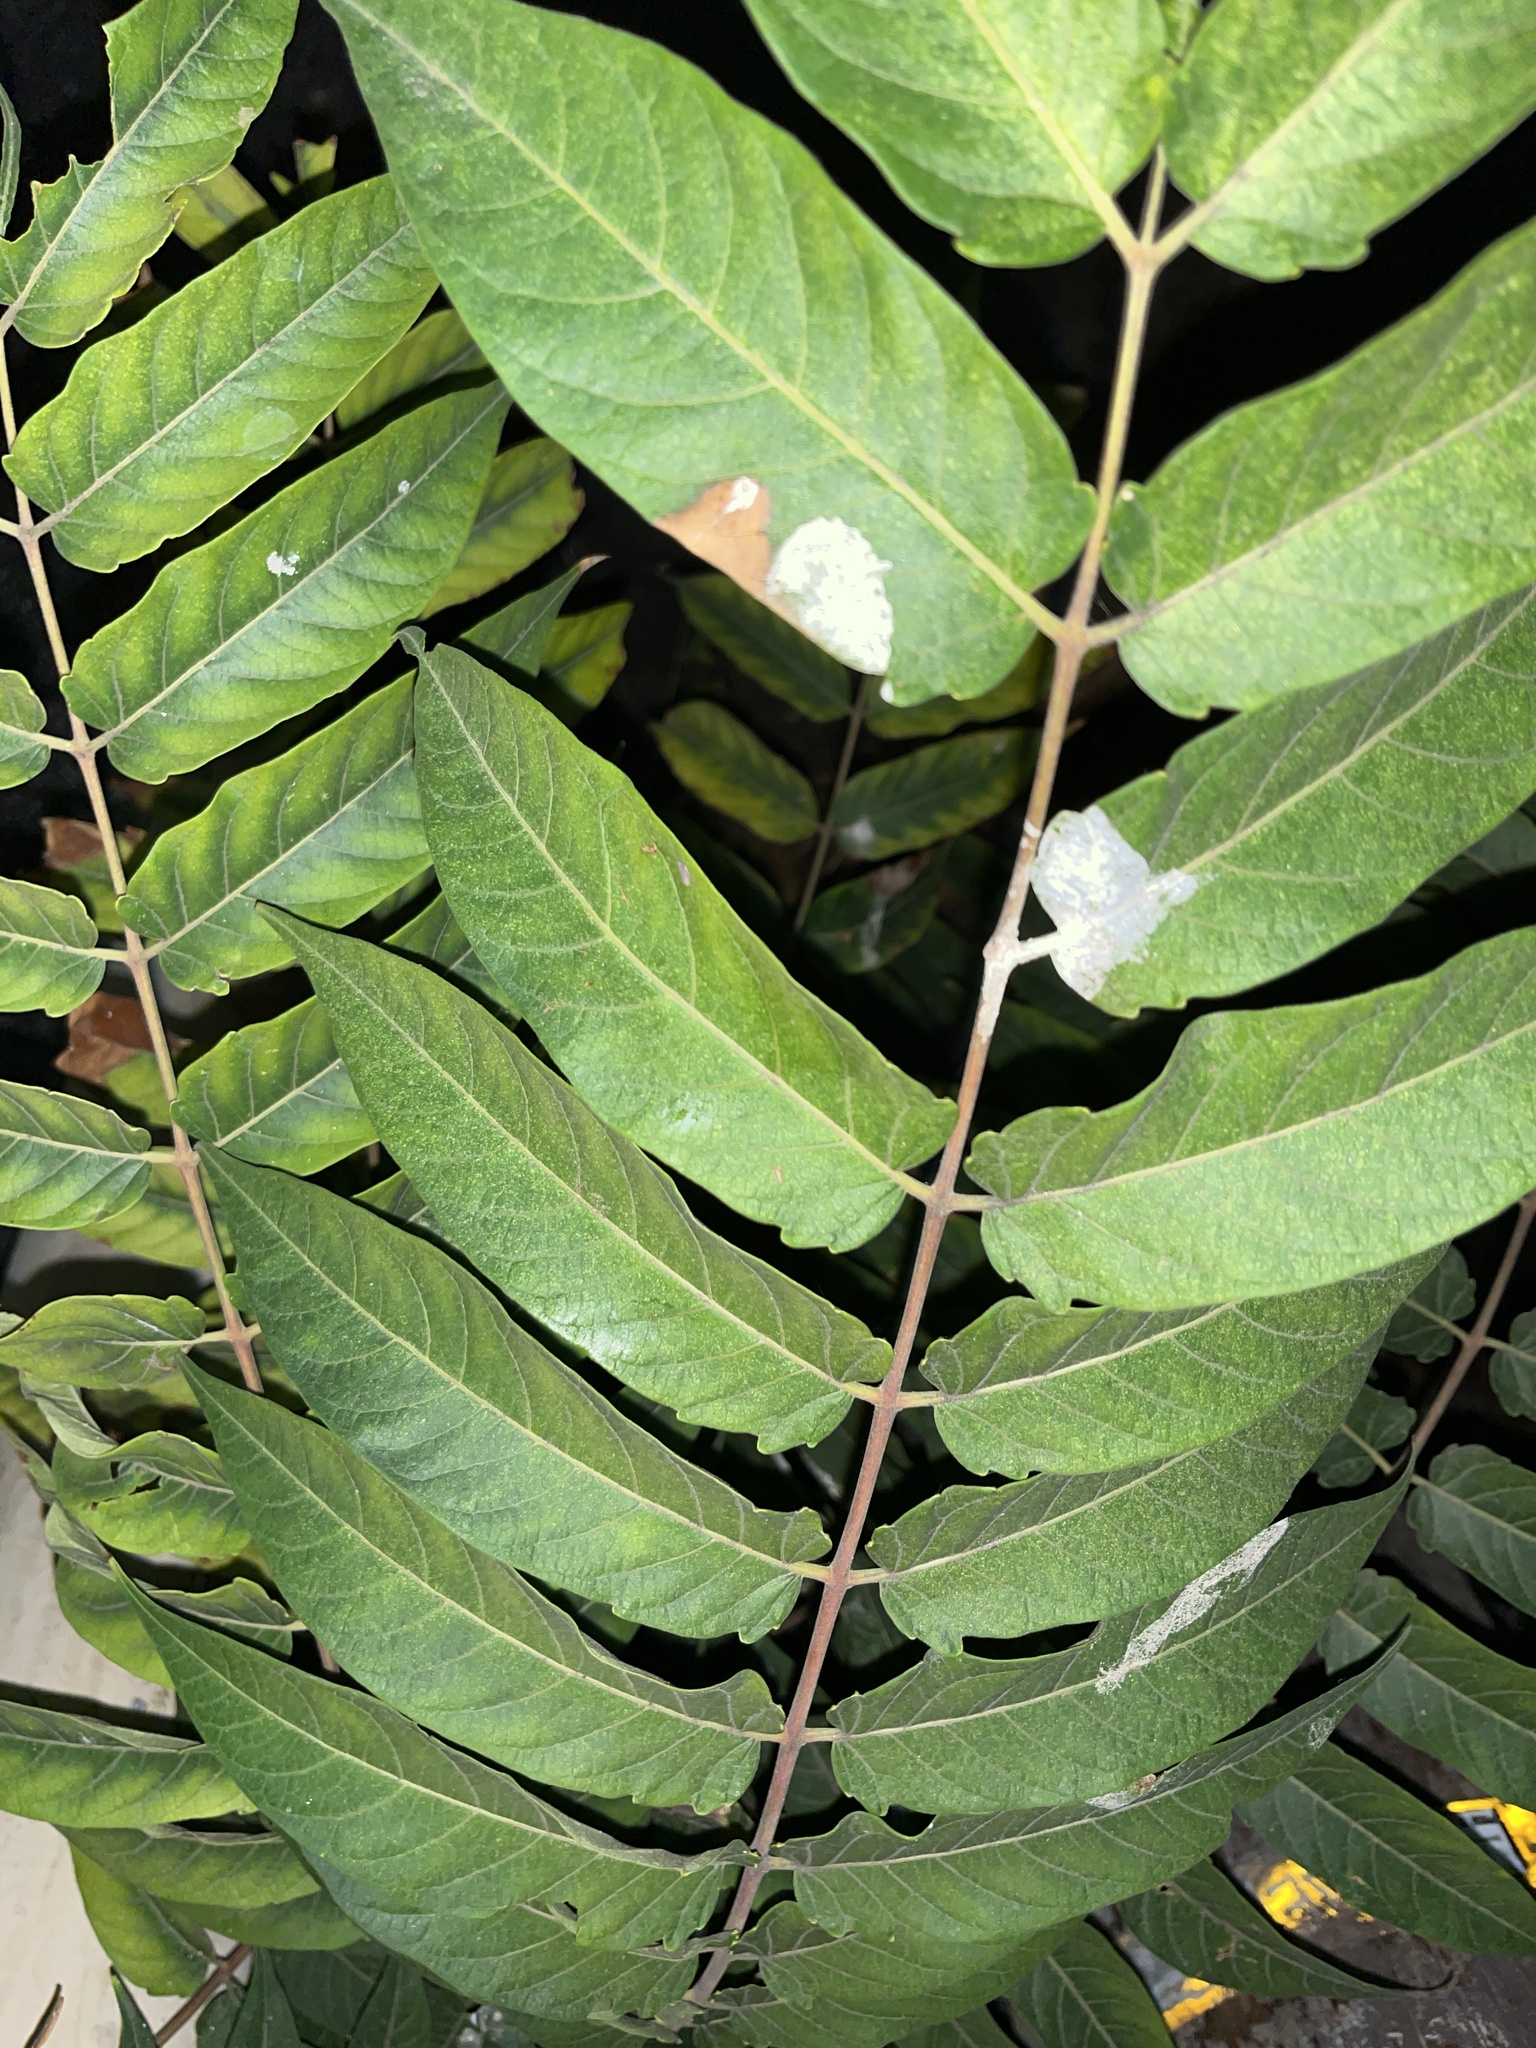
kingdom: Plantae
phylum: Tracheophyta
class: Magnoliopsida
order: Sapindales
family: Simaroubaceae
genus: Ailanthus
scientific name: Ailanthus altissima
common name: Tree-of-heaven
